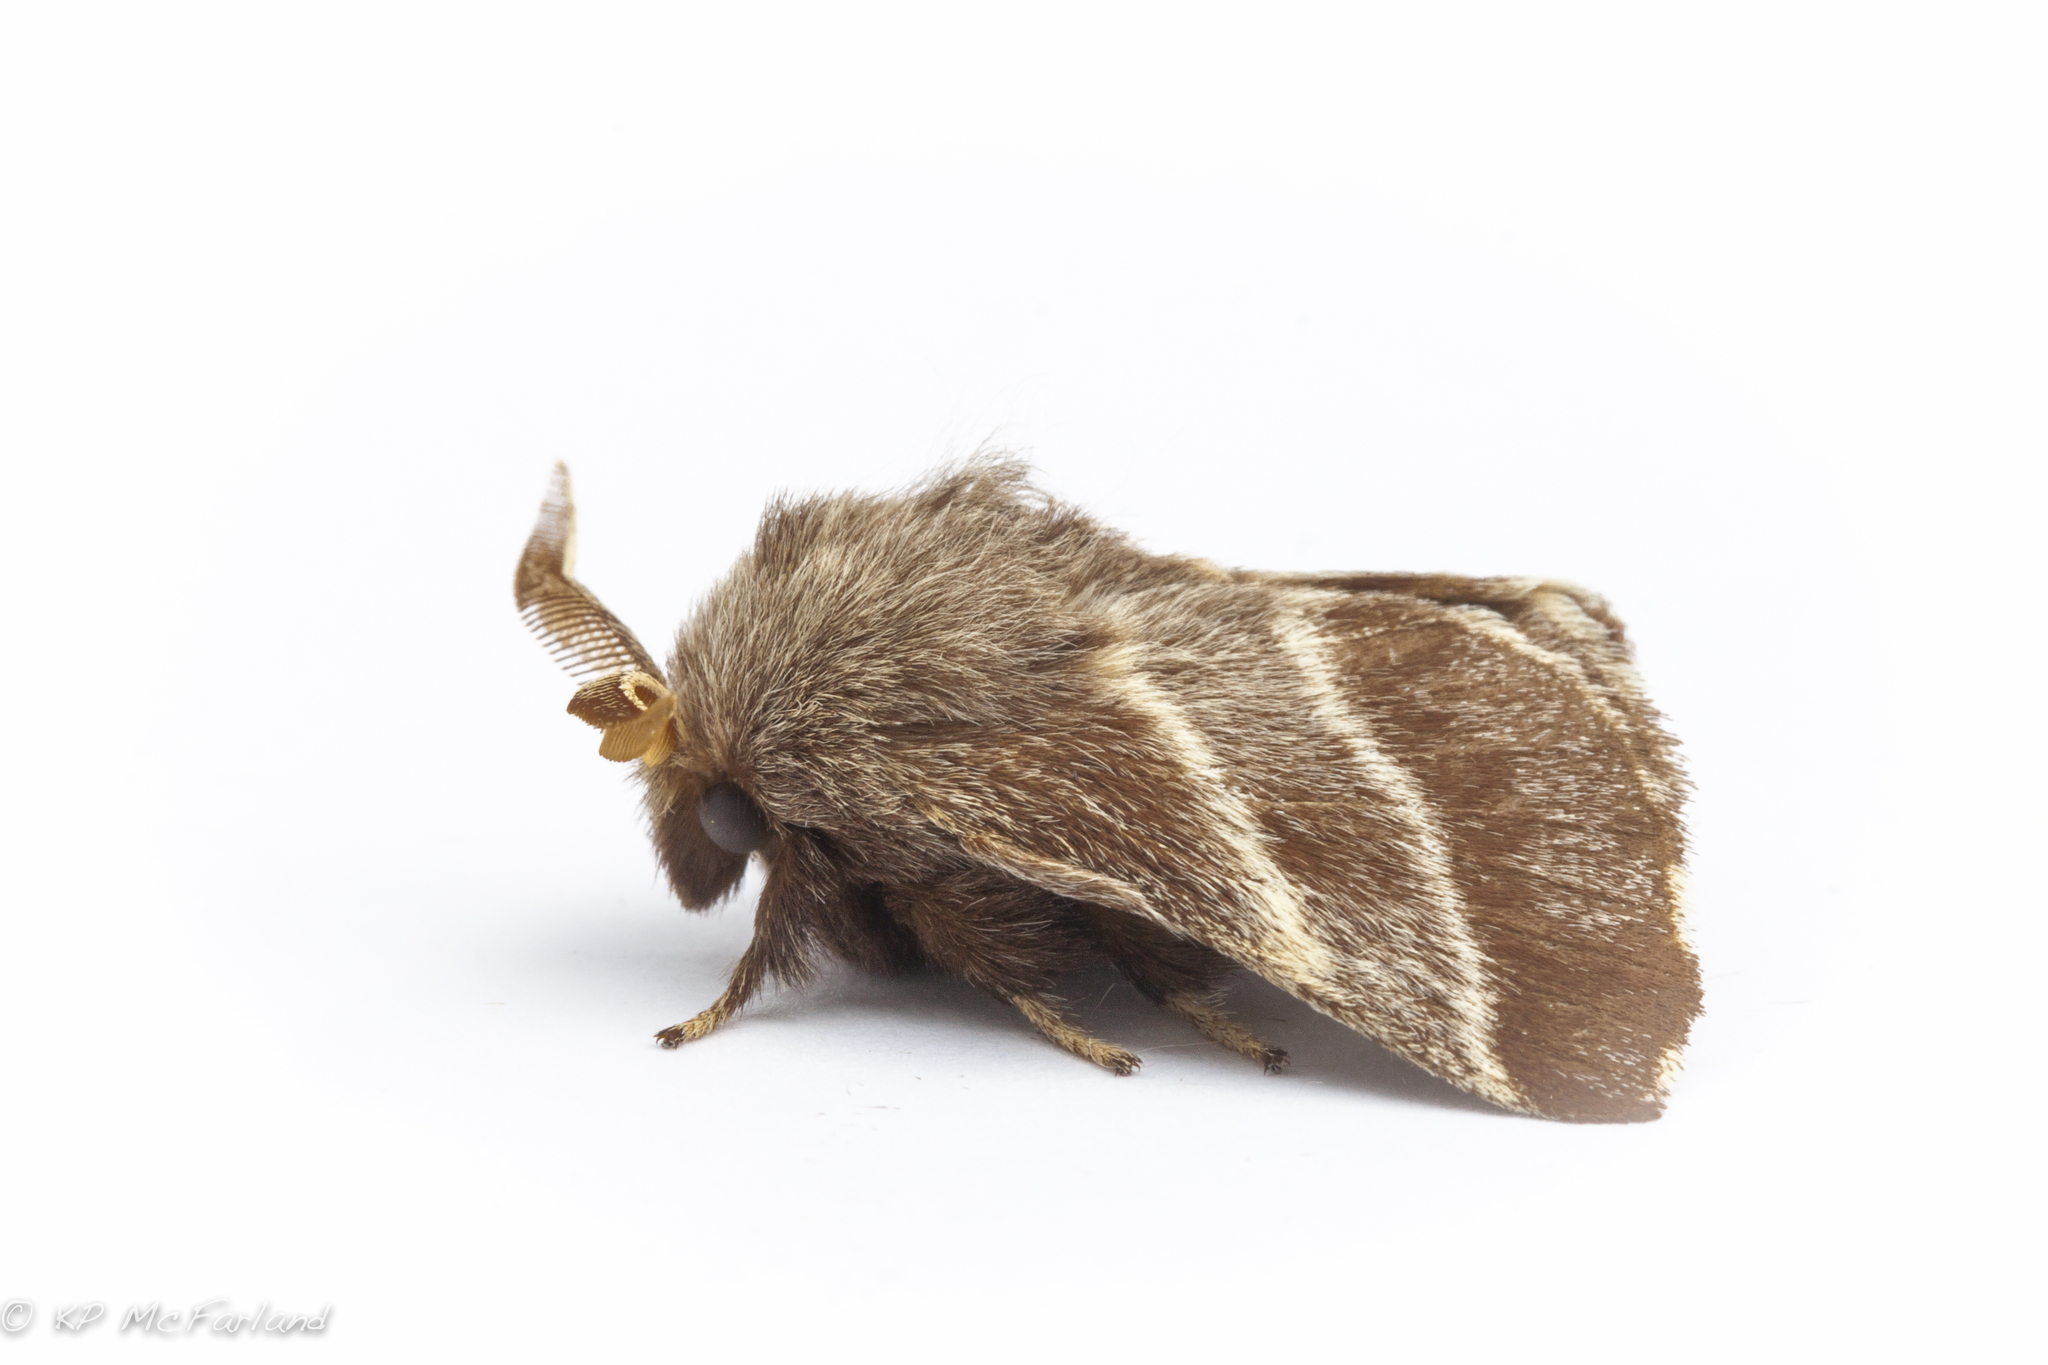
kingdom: Animalia
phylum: Arthropoda
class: Insecta
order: Lepidoptera
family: Lasiocampidae
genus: Malacosoma
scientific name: Malacosoma americana
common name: Eastern tent caterpillar moth
